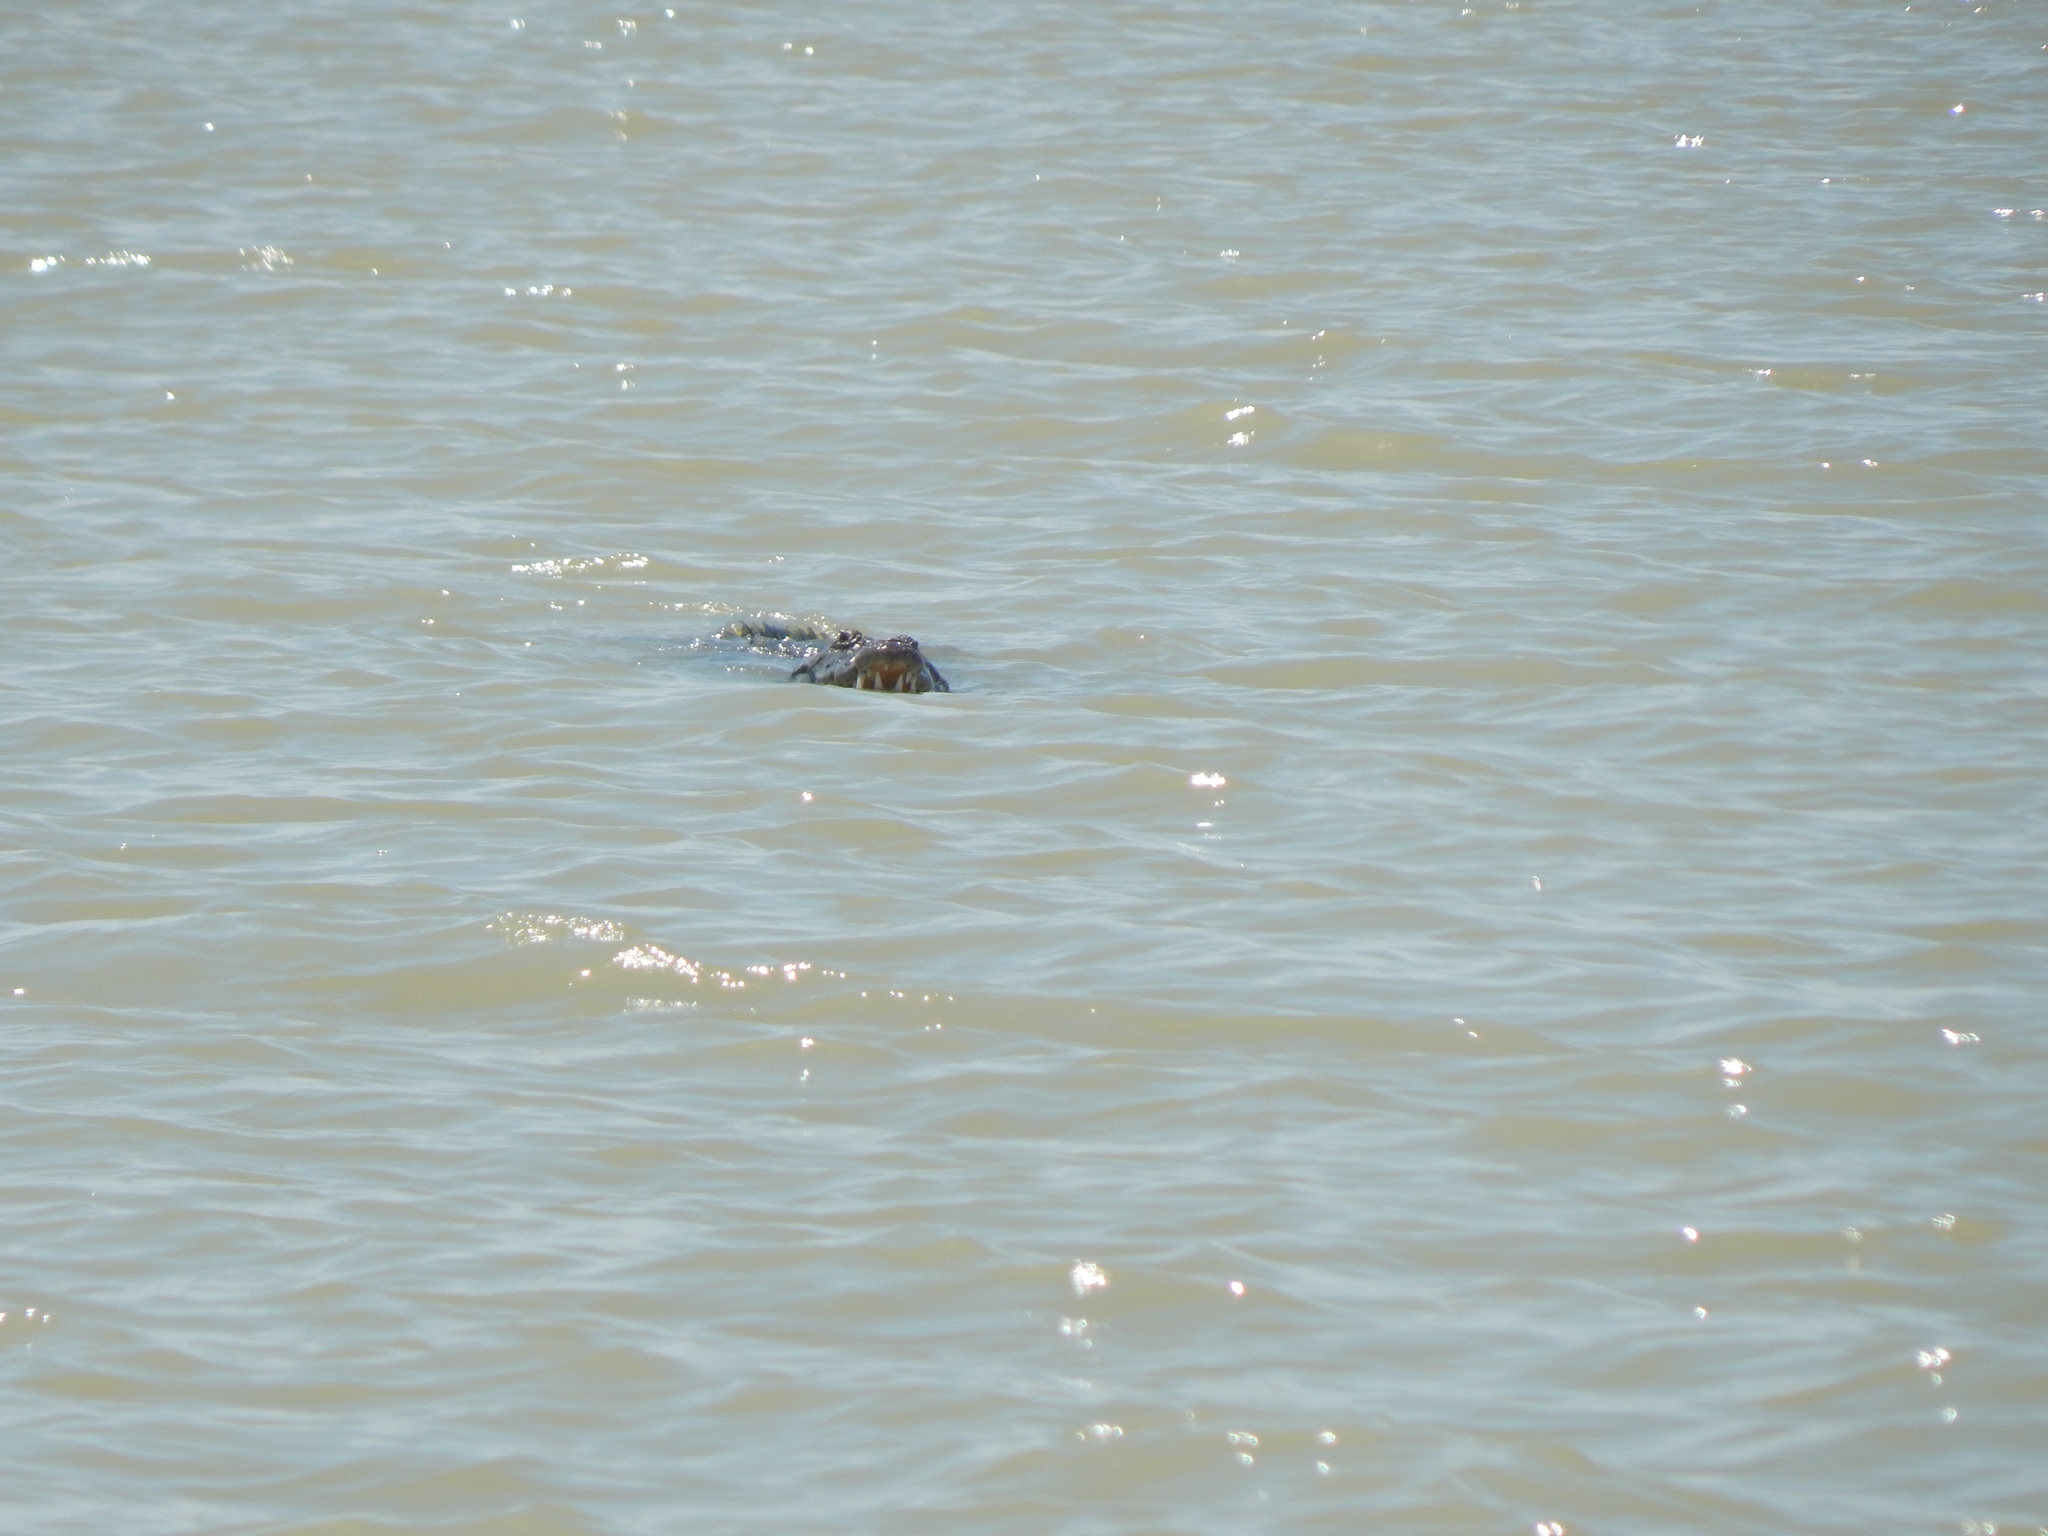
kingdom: Animalia
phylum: Chordata
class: Crocodylia
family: Crocodylidae
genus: Crocodylus
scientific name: Crocodylus niloticus
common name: Nile crocodile
